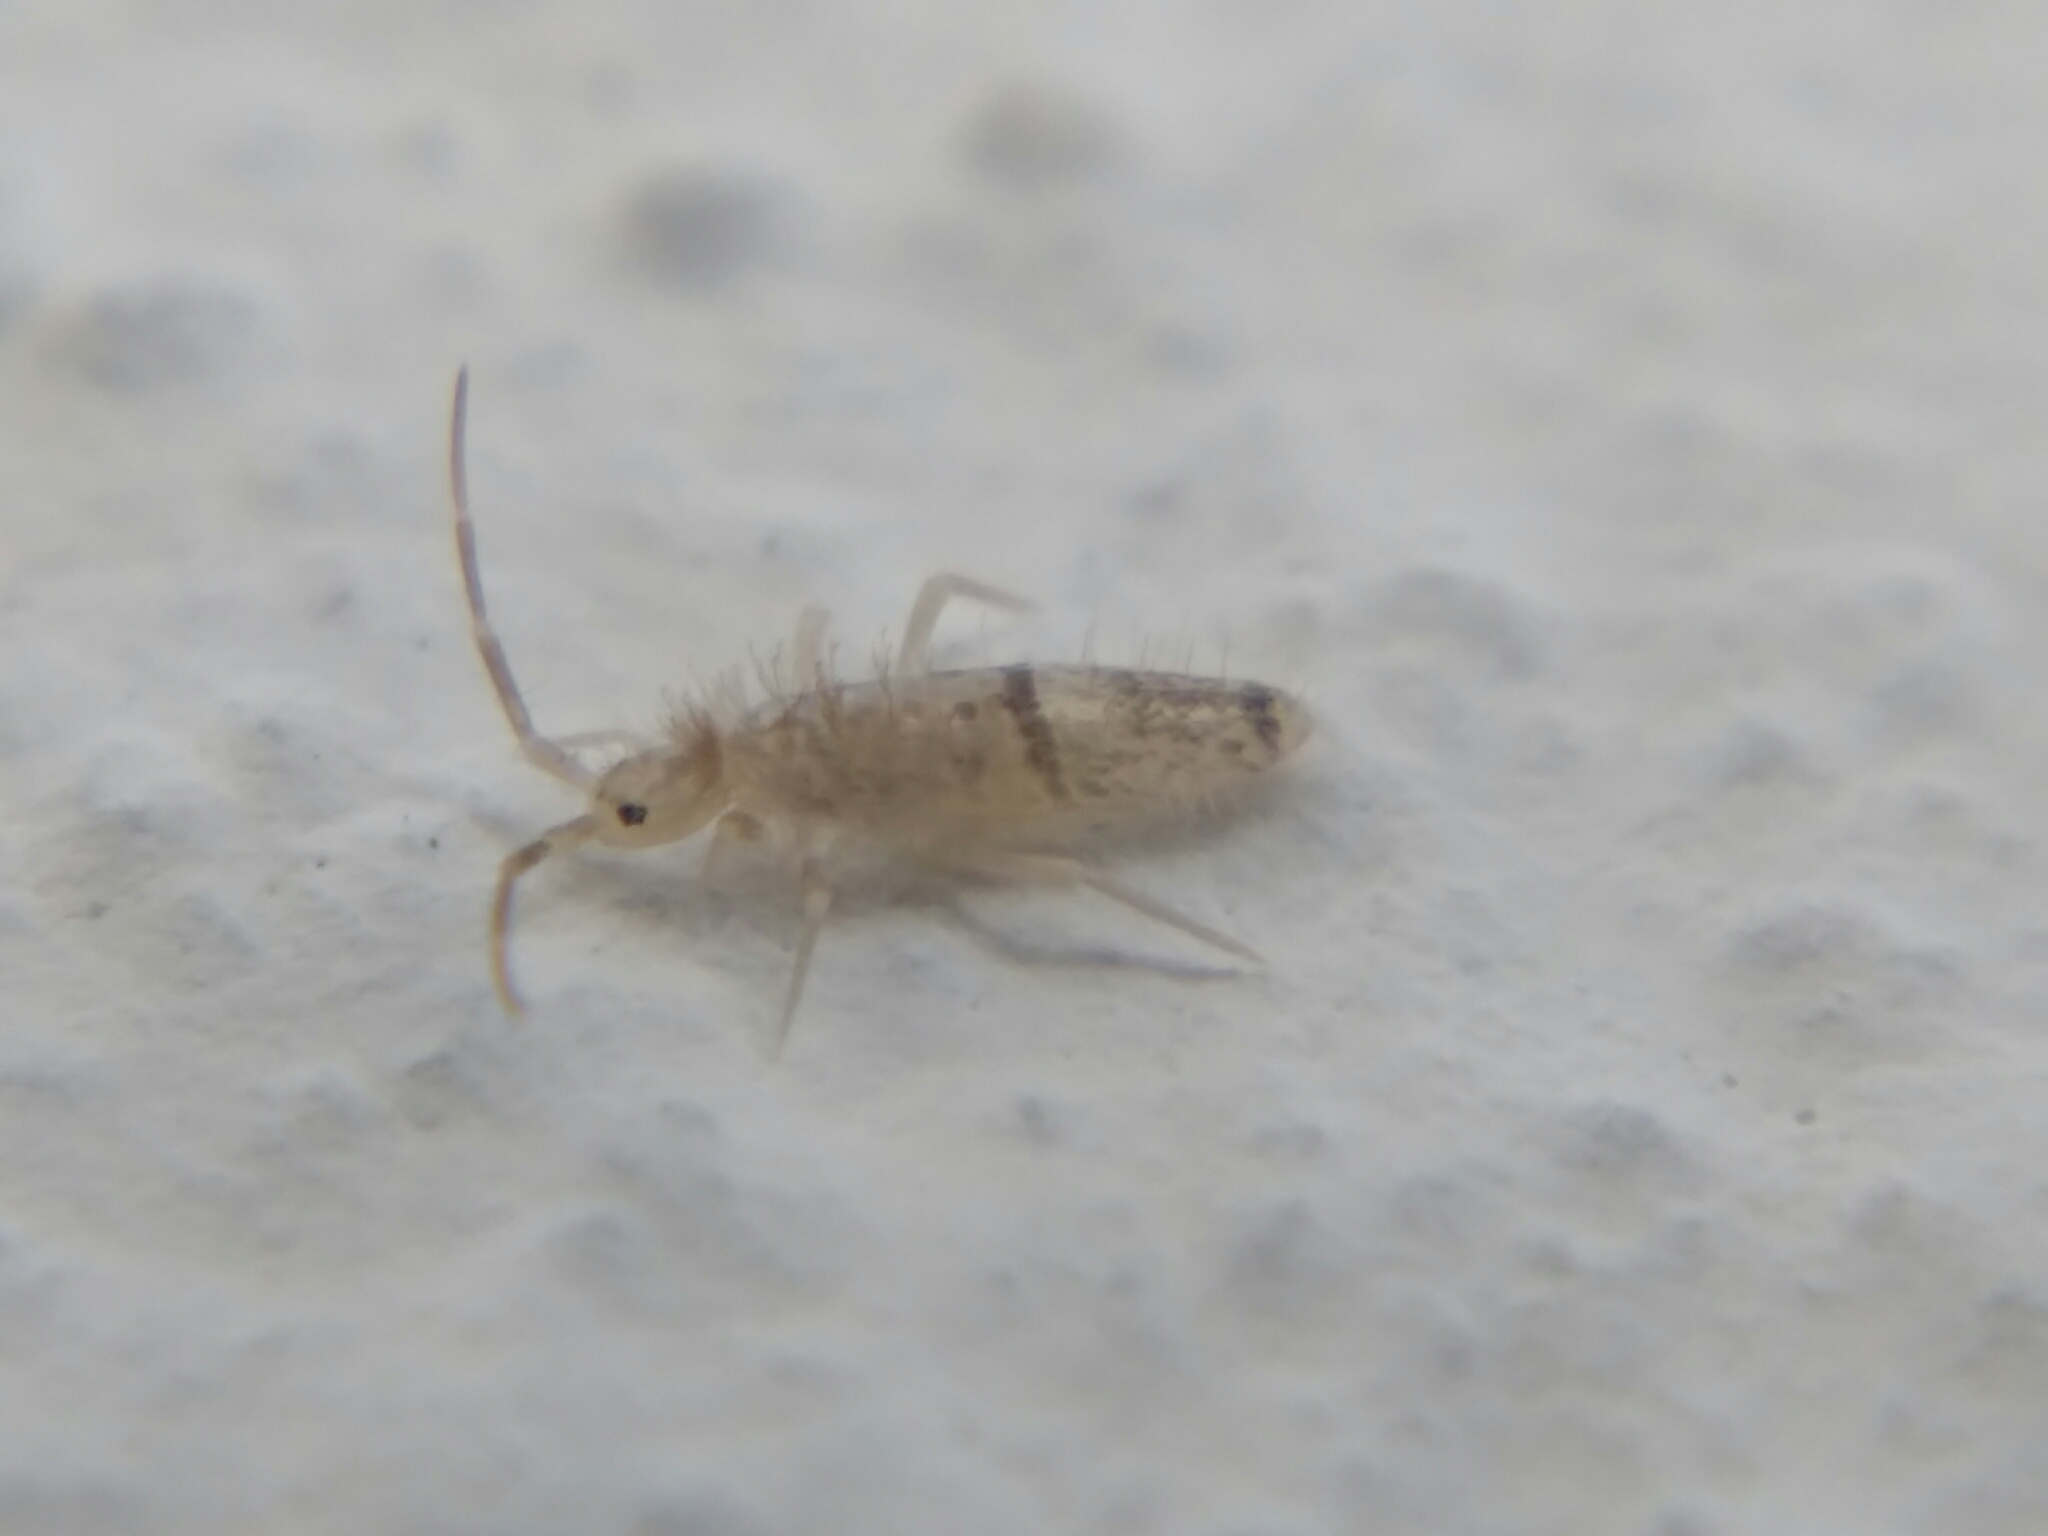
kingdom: Animalia
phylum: Arthropoda
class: Collembola
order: Entomobryomorpha
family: Entomobryidae
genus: Seira
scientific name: Seira musarum
